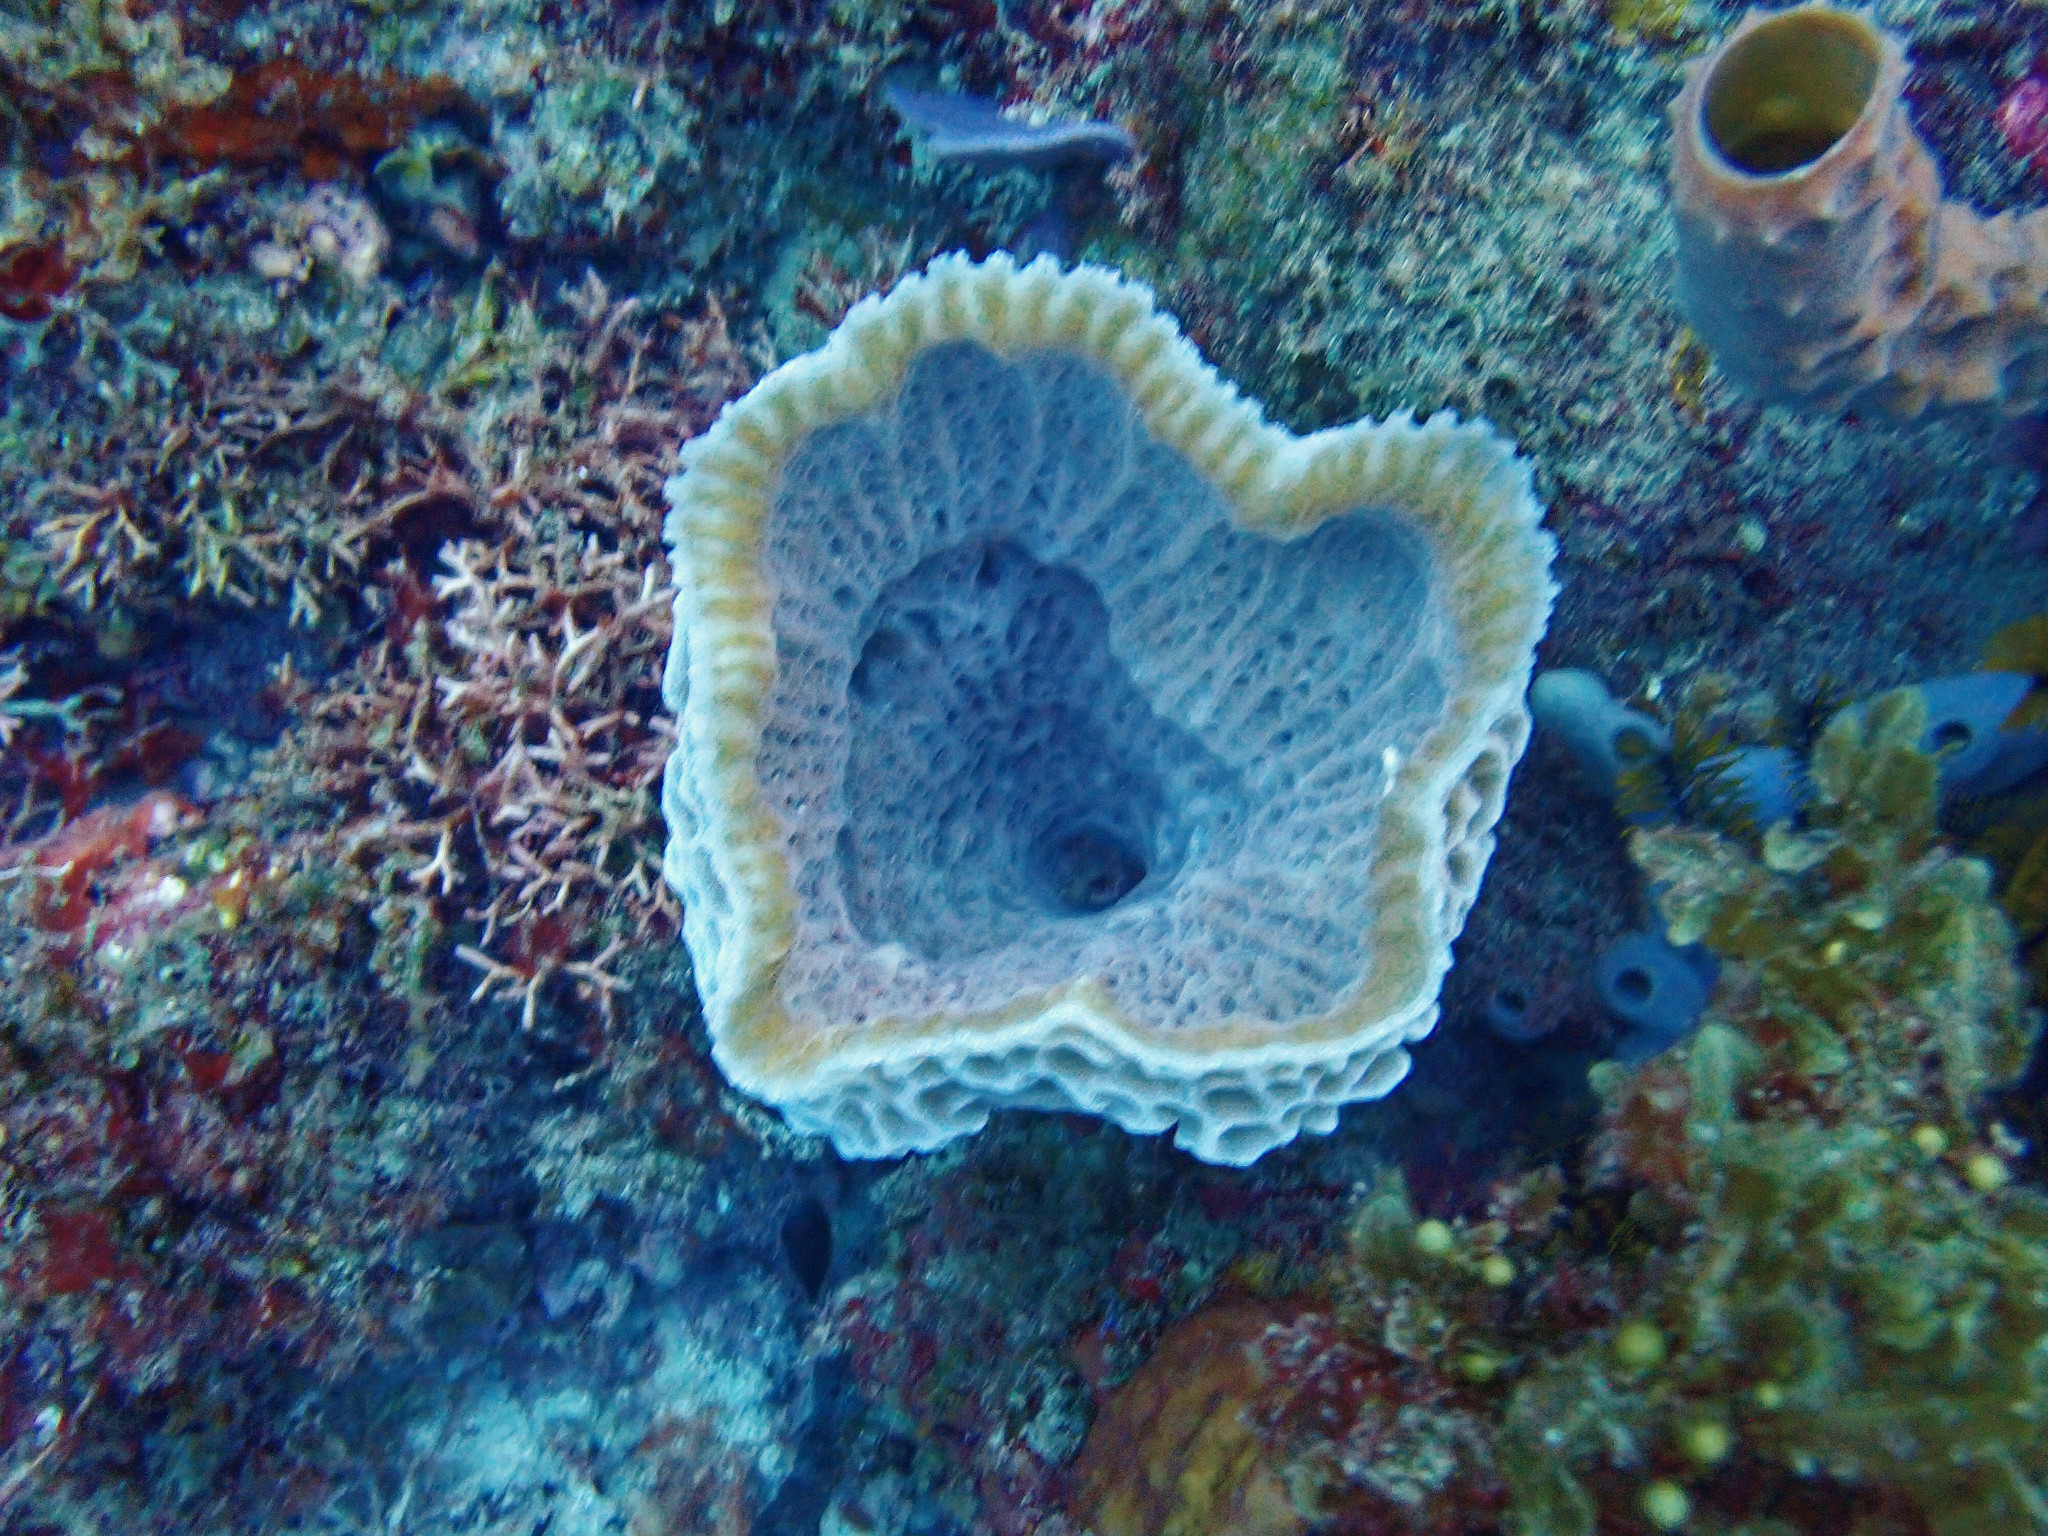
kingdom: Animalia
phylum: Porifera
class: Demospongiae
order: Haplosclerida
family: Callyspongiidae
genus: Callyspongia
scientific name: Callyspongia plicifera
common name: Azure vase sponge
